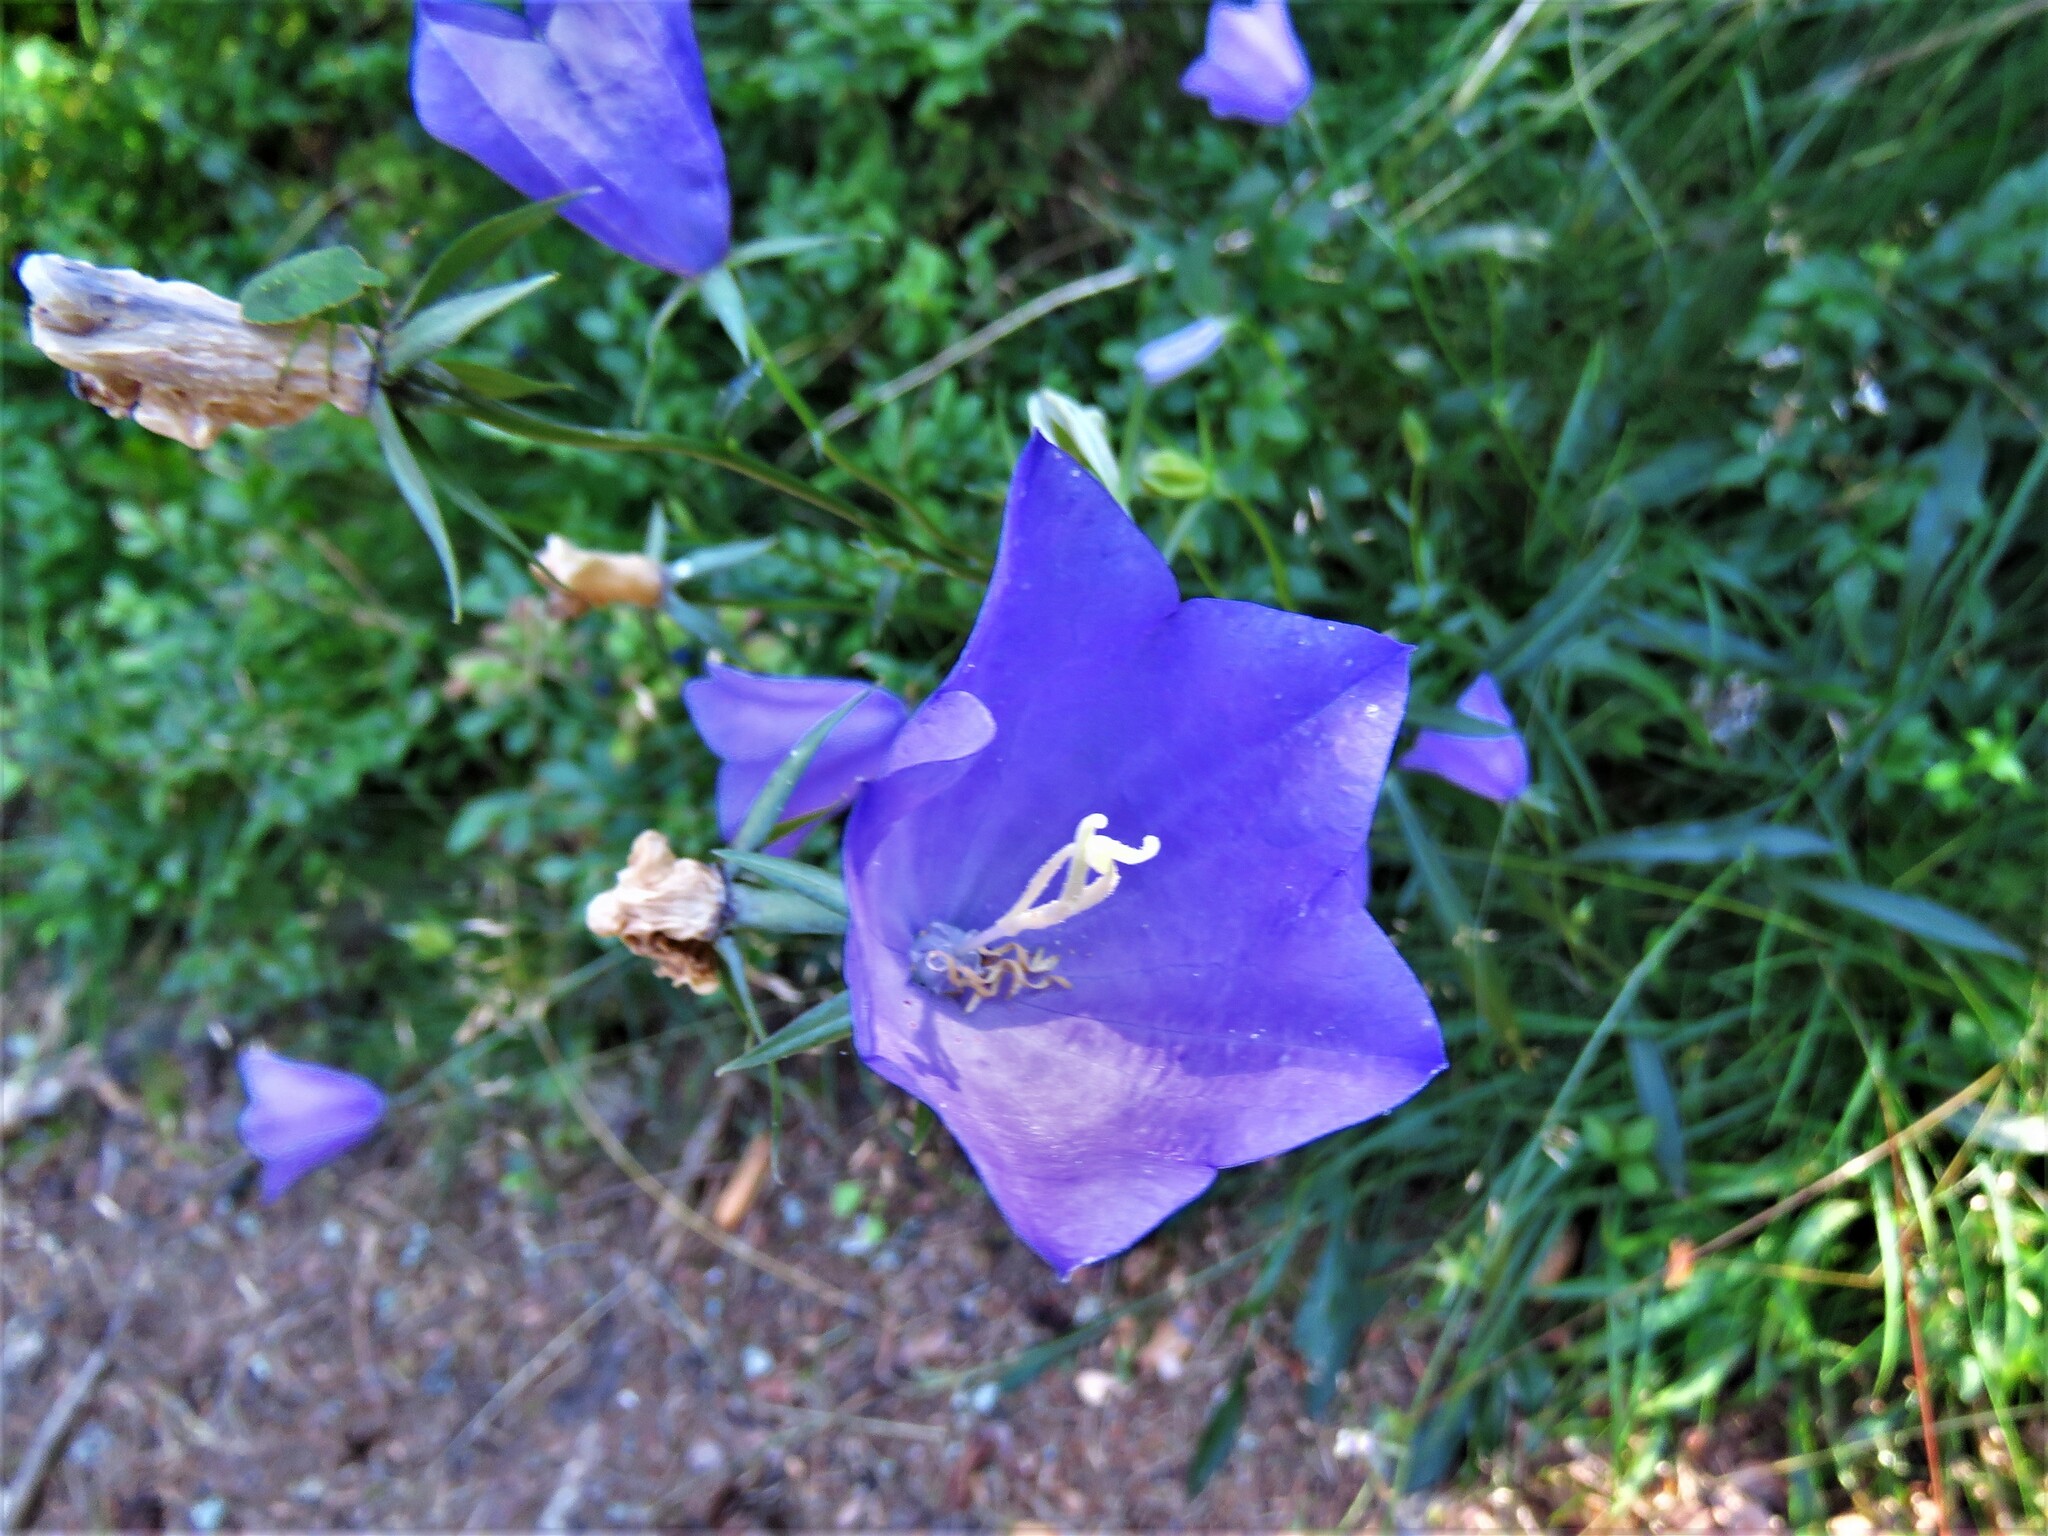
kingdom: Plantae
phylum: Tracheophyta
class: Magnoliopsida
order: Asterales
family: Campanulaceae
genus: Campanula
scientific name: Campanula persicifolia
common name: Peach-leaved bellflower
